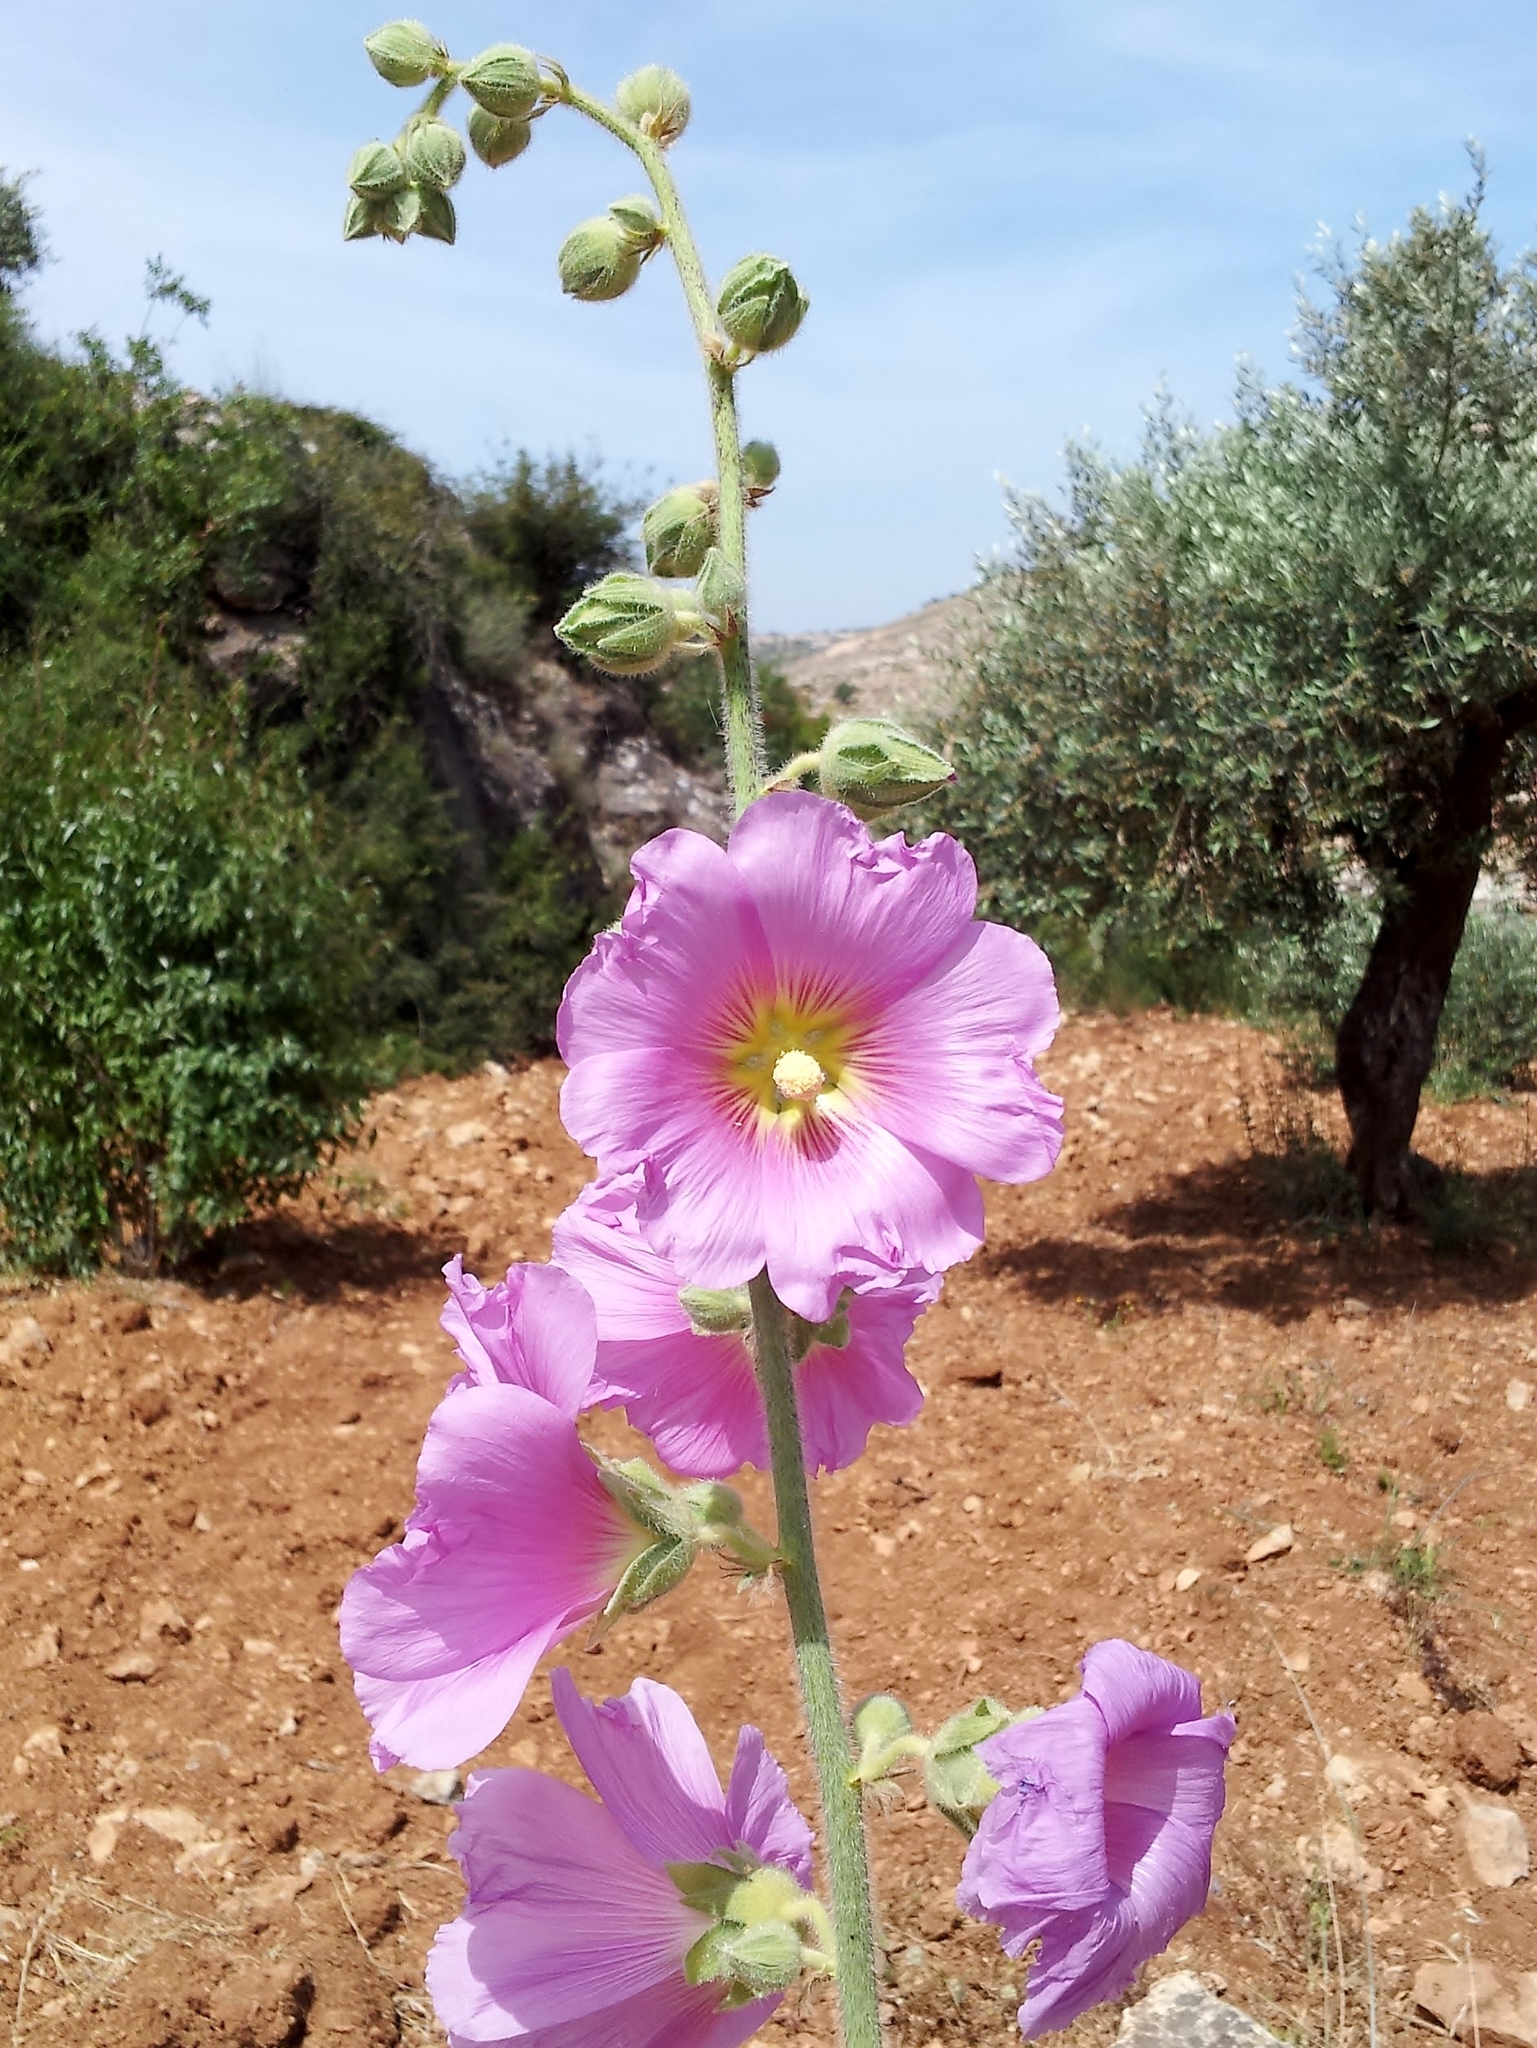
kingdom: Plantae
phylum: Tracheophyta
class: Magnoliopsida
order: Malvales
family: Malvaceae
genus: Alcea
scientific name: Alcea setosa
